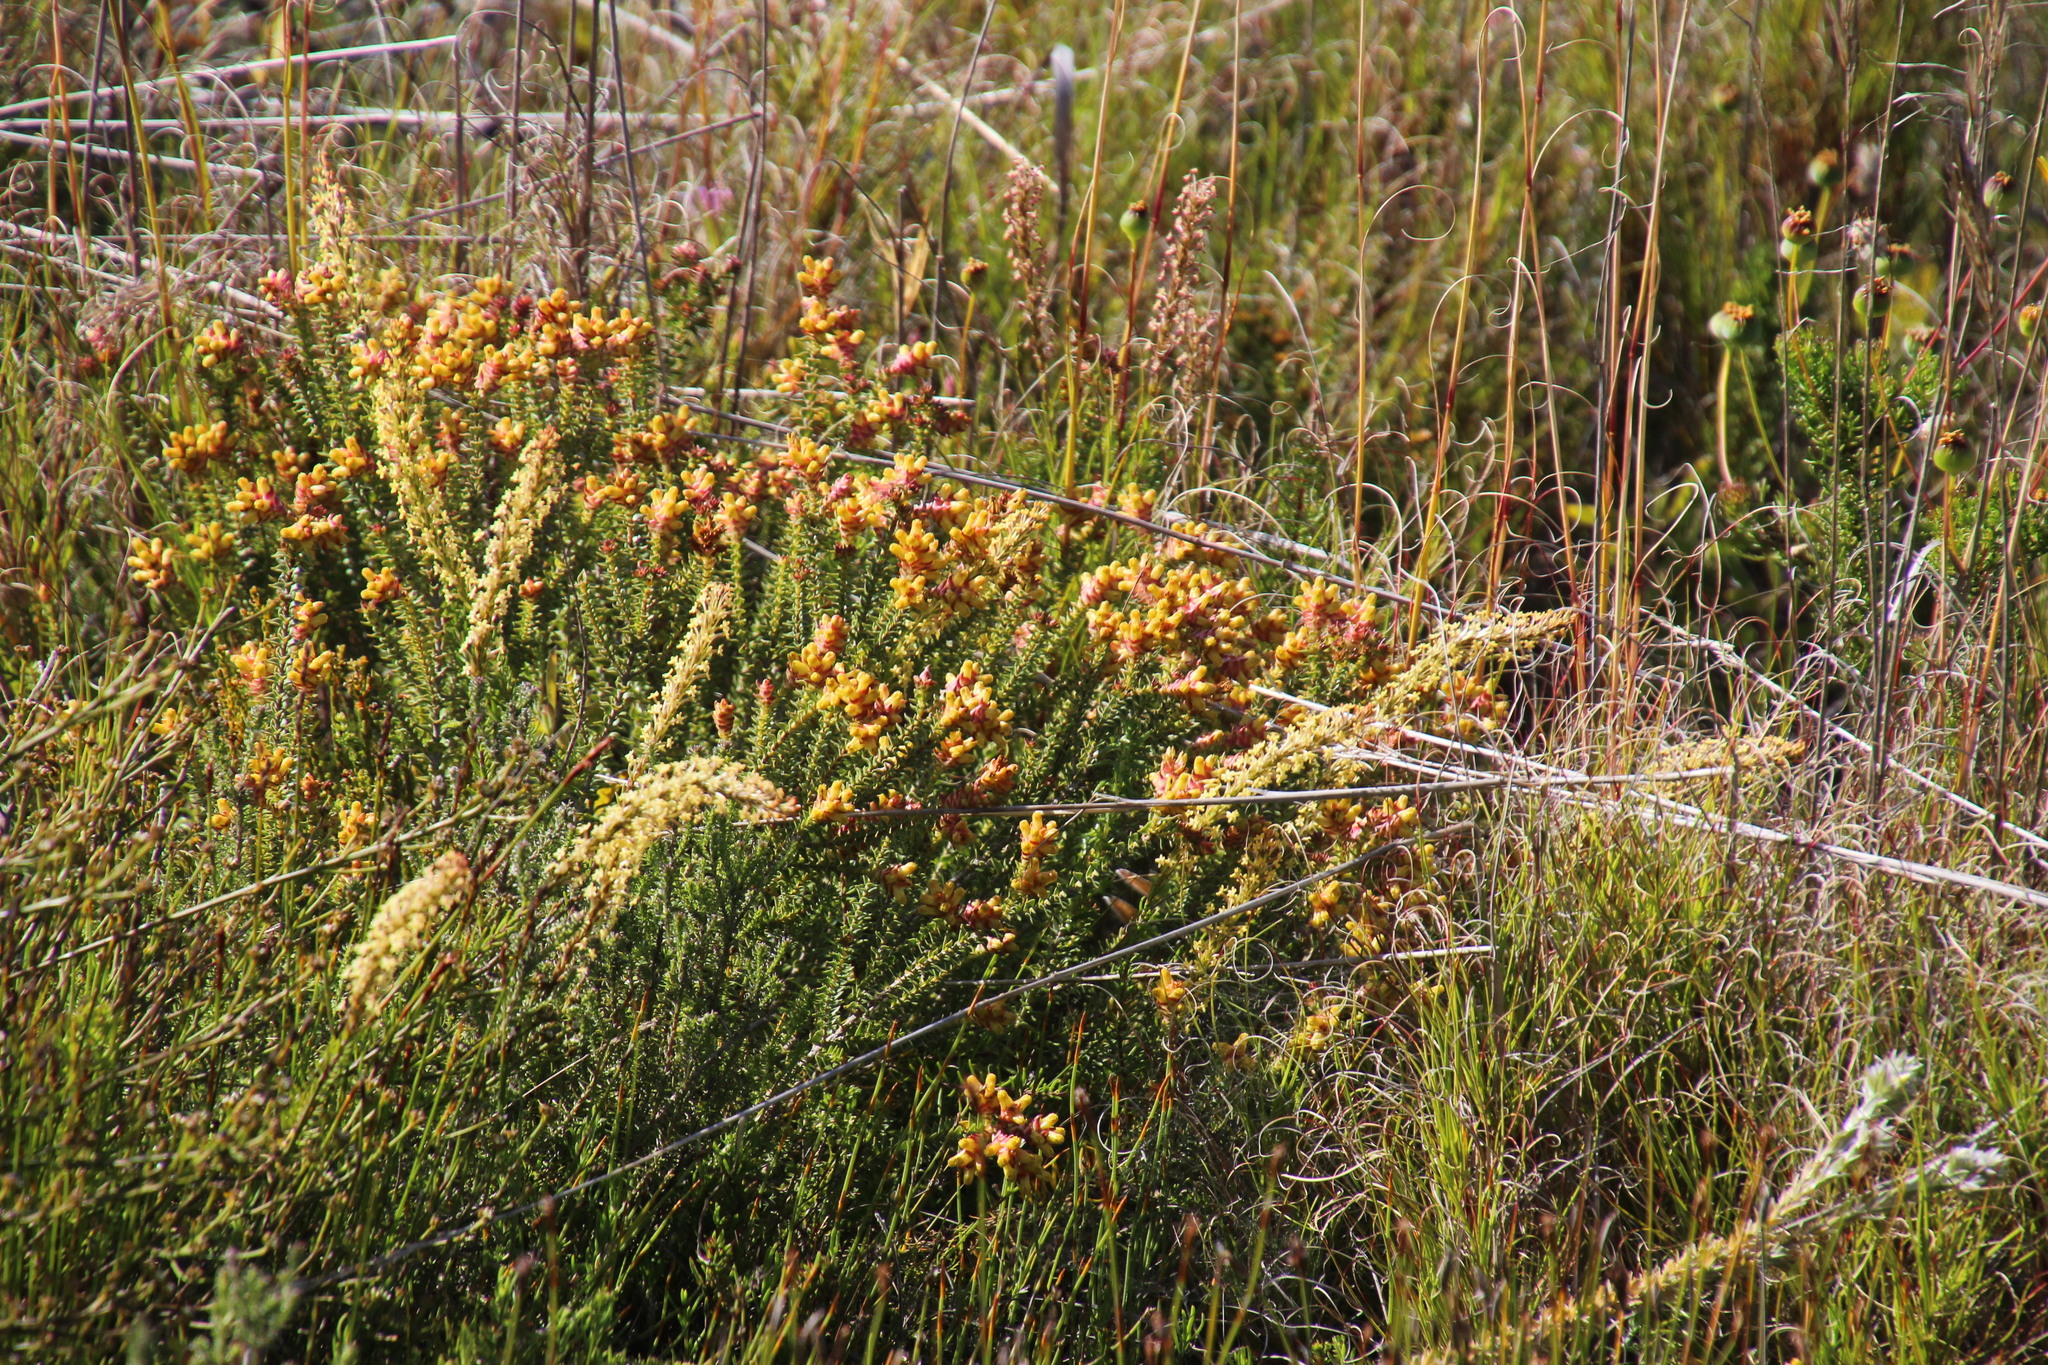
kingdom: Plantae
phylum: Tracheophyta
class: Magnoliopsida
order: Myrtales
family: Penaeaceae
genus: Penaea
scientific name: Penaea mucronata
